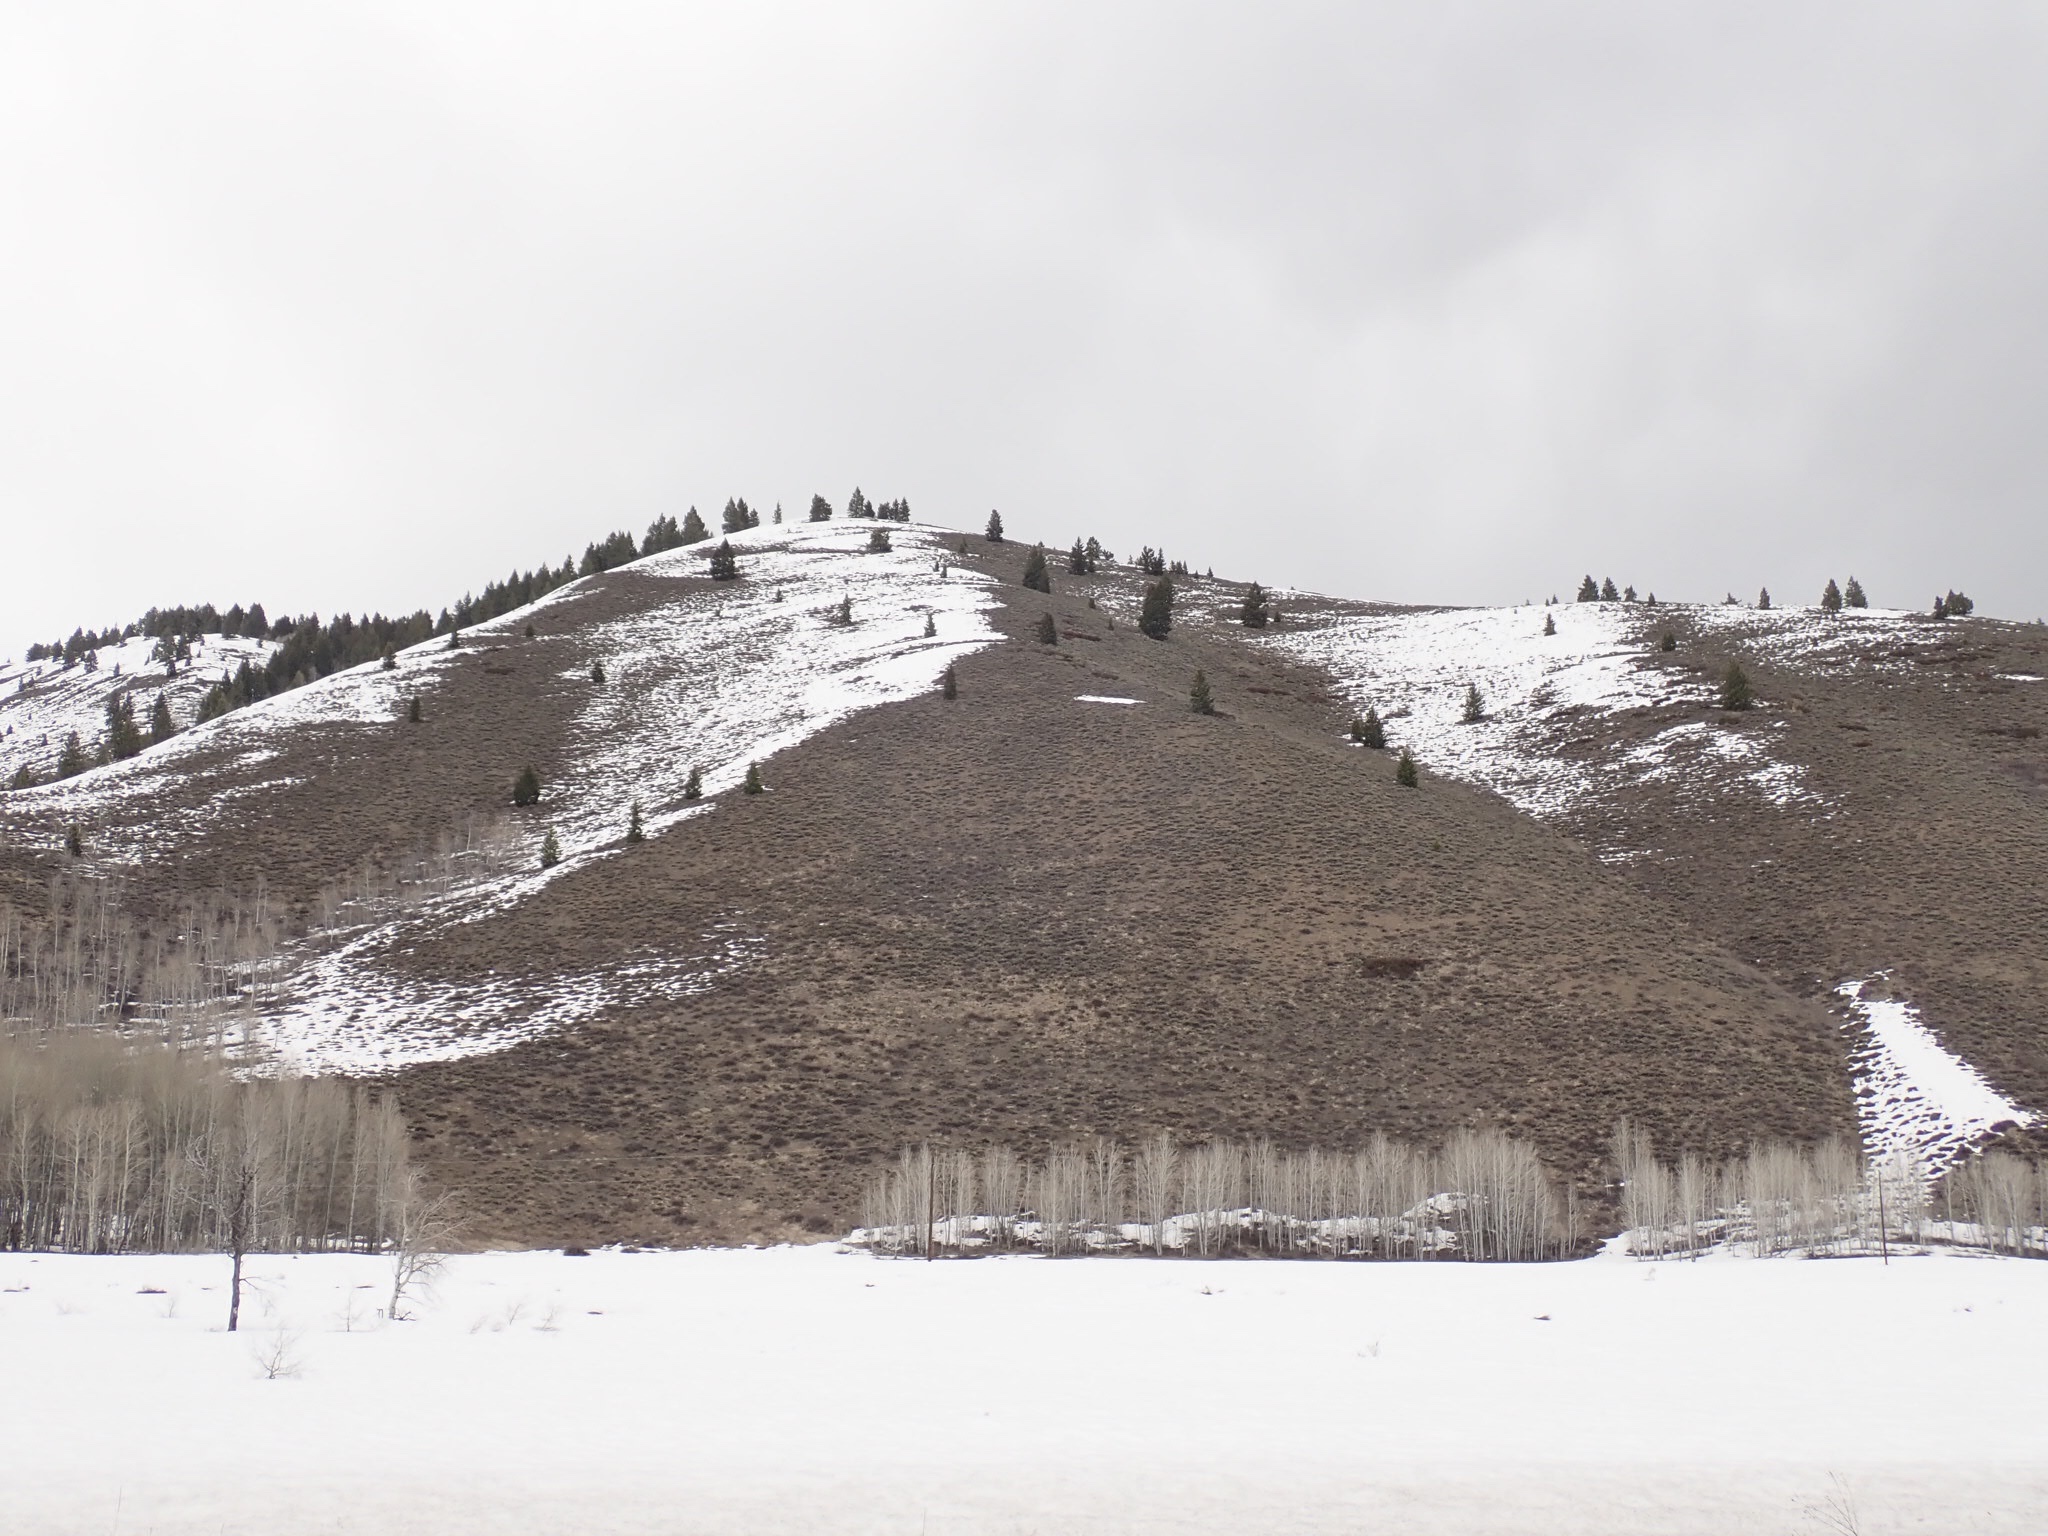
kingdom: Plantae
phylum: Tracheophyta
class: Magnoliopsida
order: Malpighiales
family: Salicaceae
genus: Populus
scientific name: Populus tremuloides
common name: Quaking aspen
